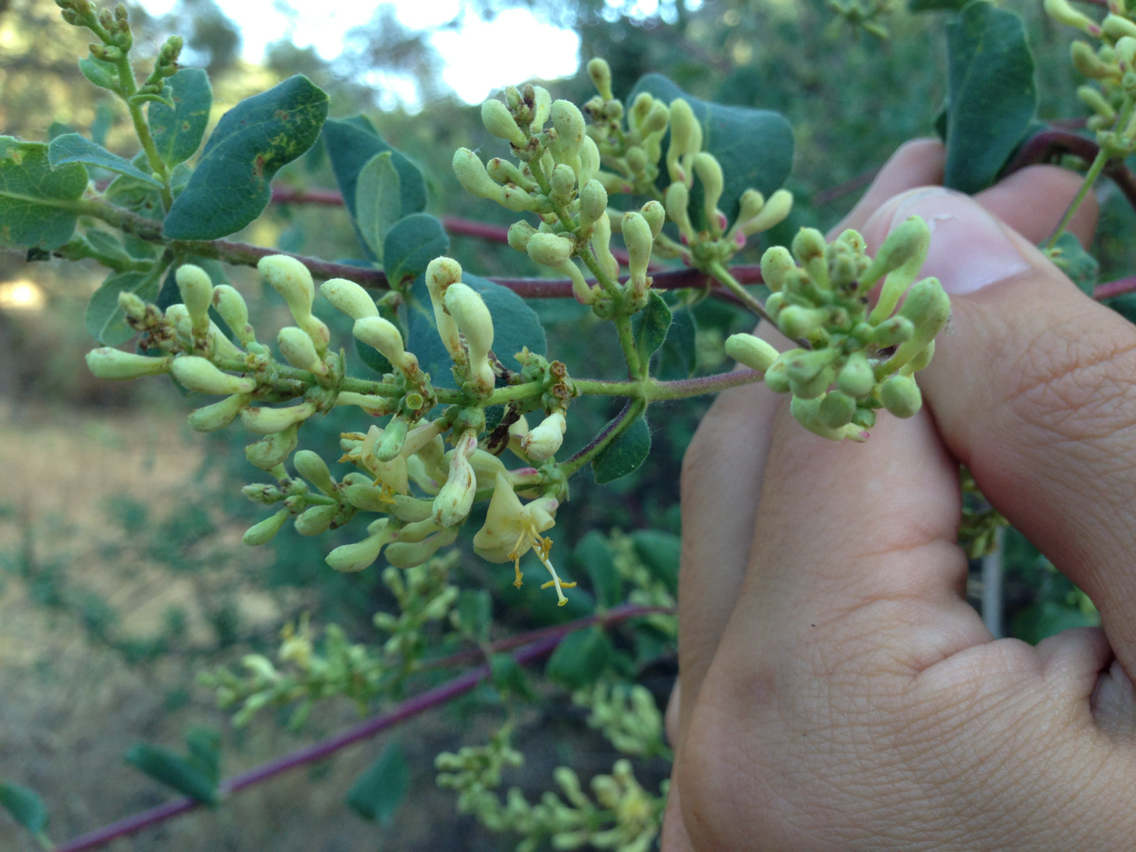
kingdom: Plantae
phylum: Tracheophyta
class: Magnoliopsida
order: Dipsacales
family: Caprifoliaceae
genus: Lonicera
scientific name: Lonicera interrupta
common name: Chaparral honeysuckle
